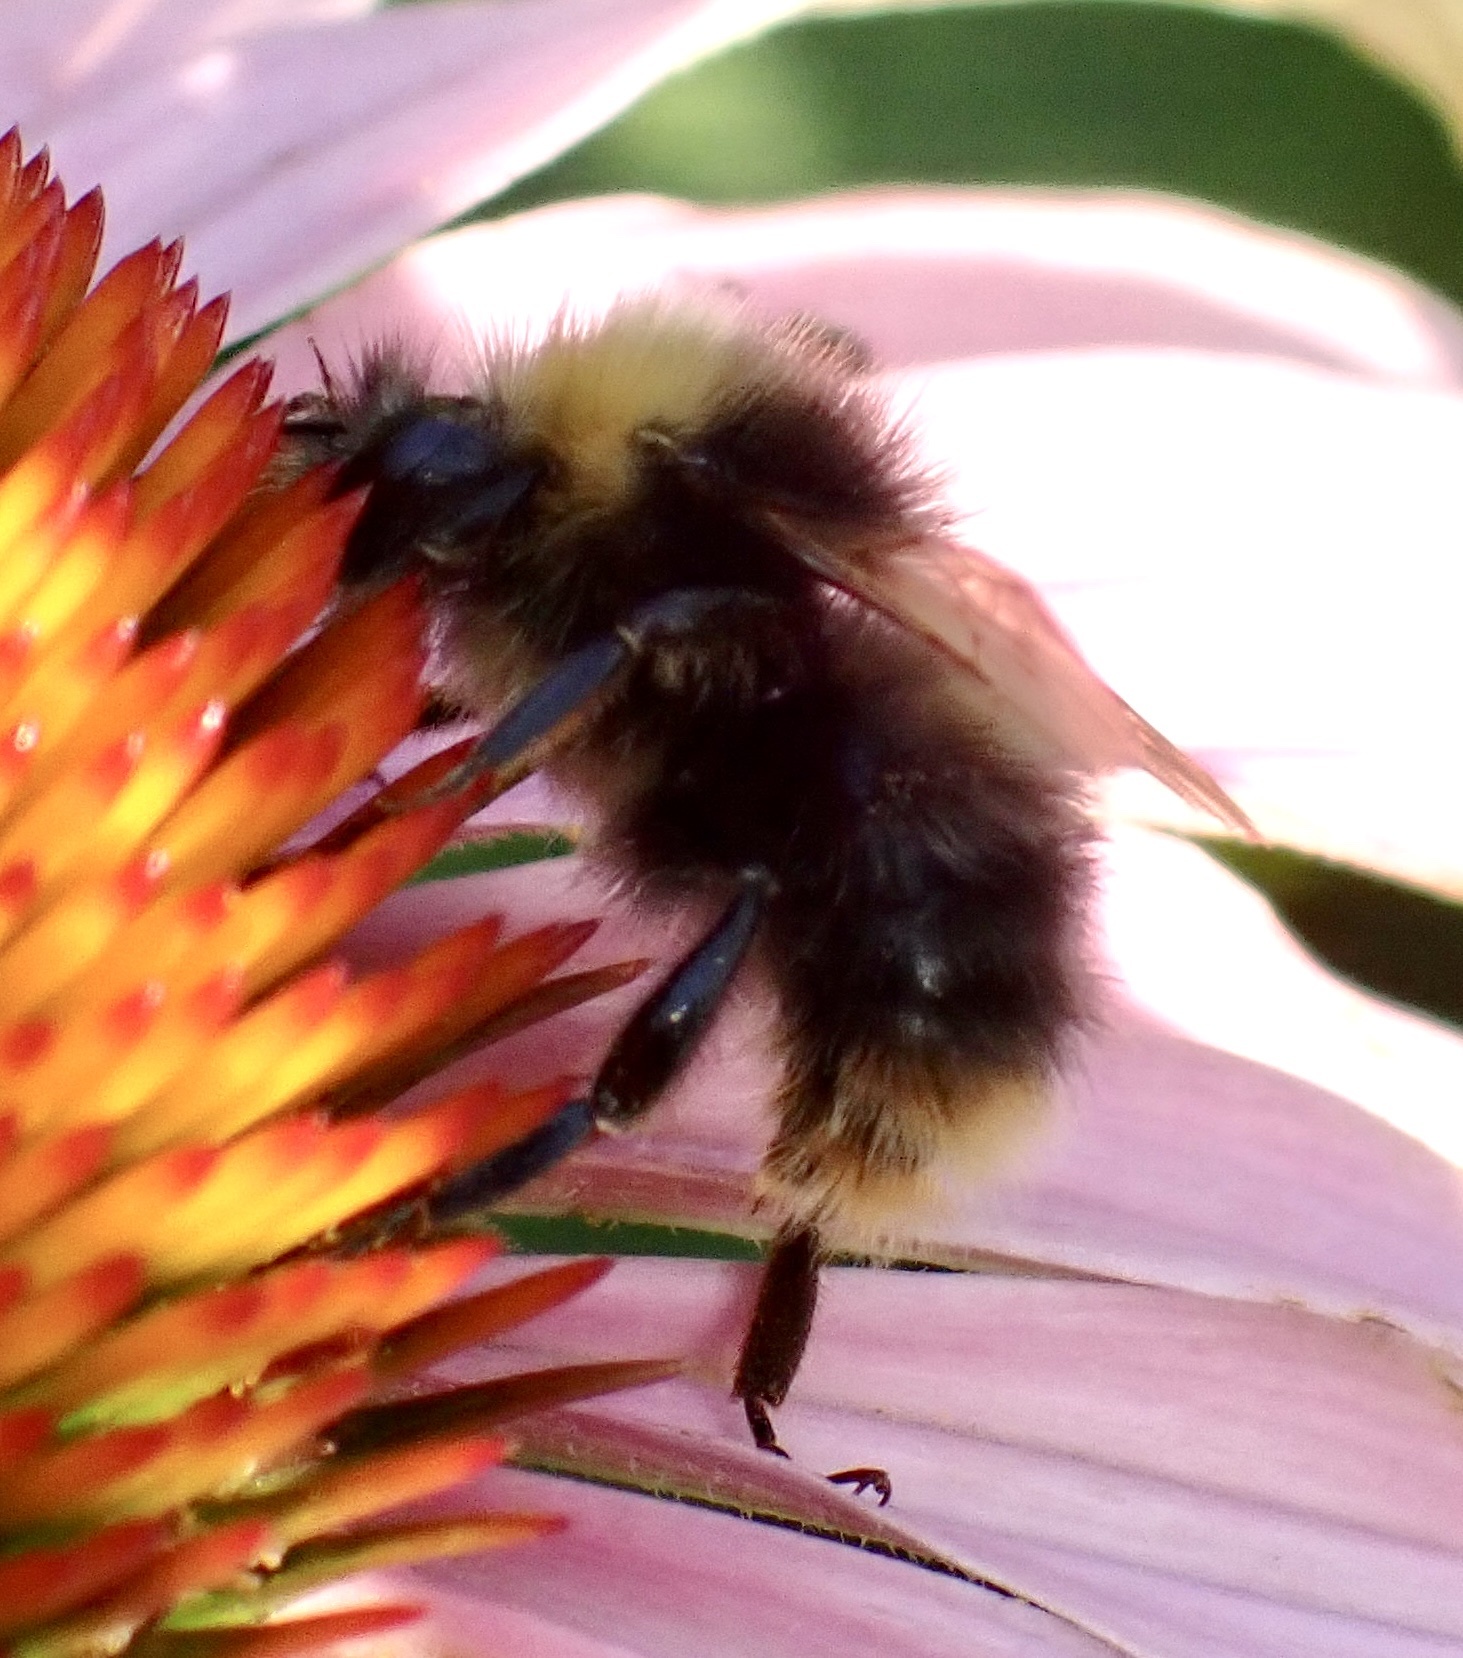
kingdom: Animalia
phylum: Arthropoda
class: Insecta
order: Hymenoptera
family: Apidae
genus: Bombus
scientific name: Bombus pratorum
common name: Early humble-bee
